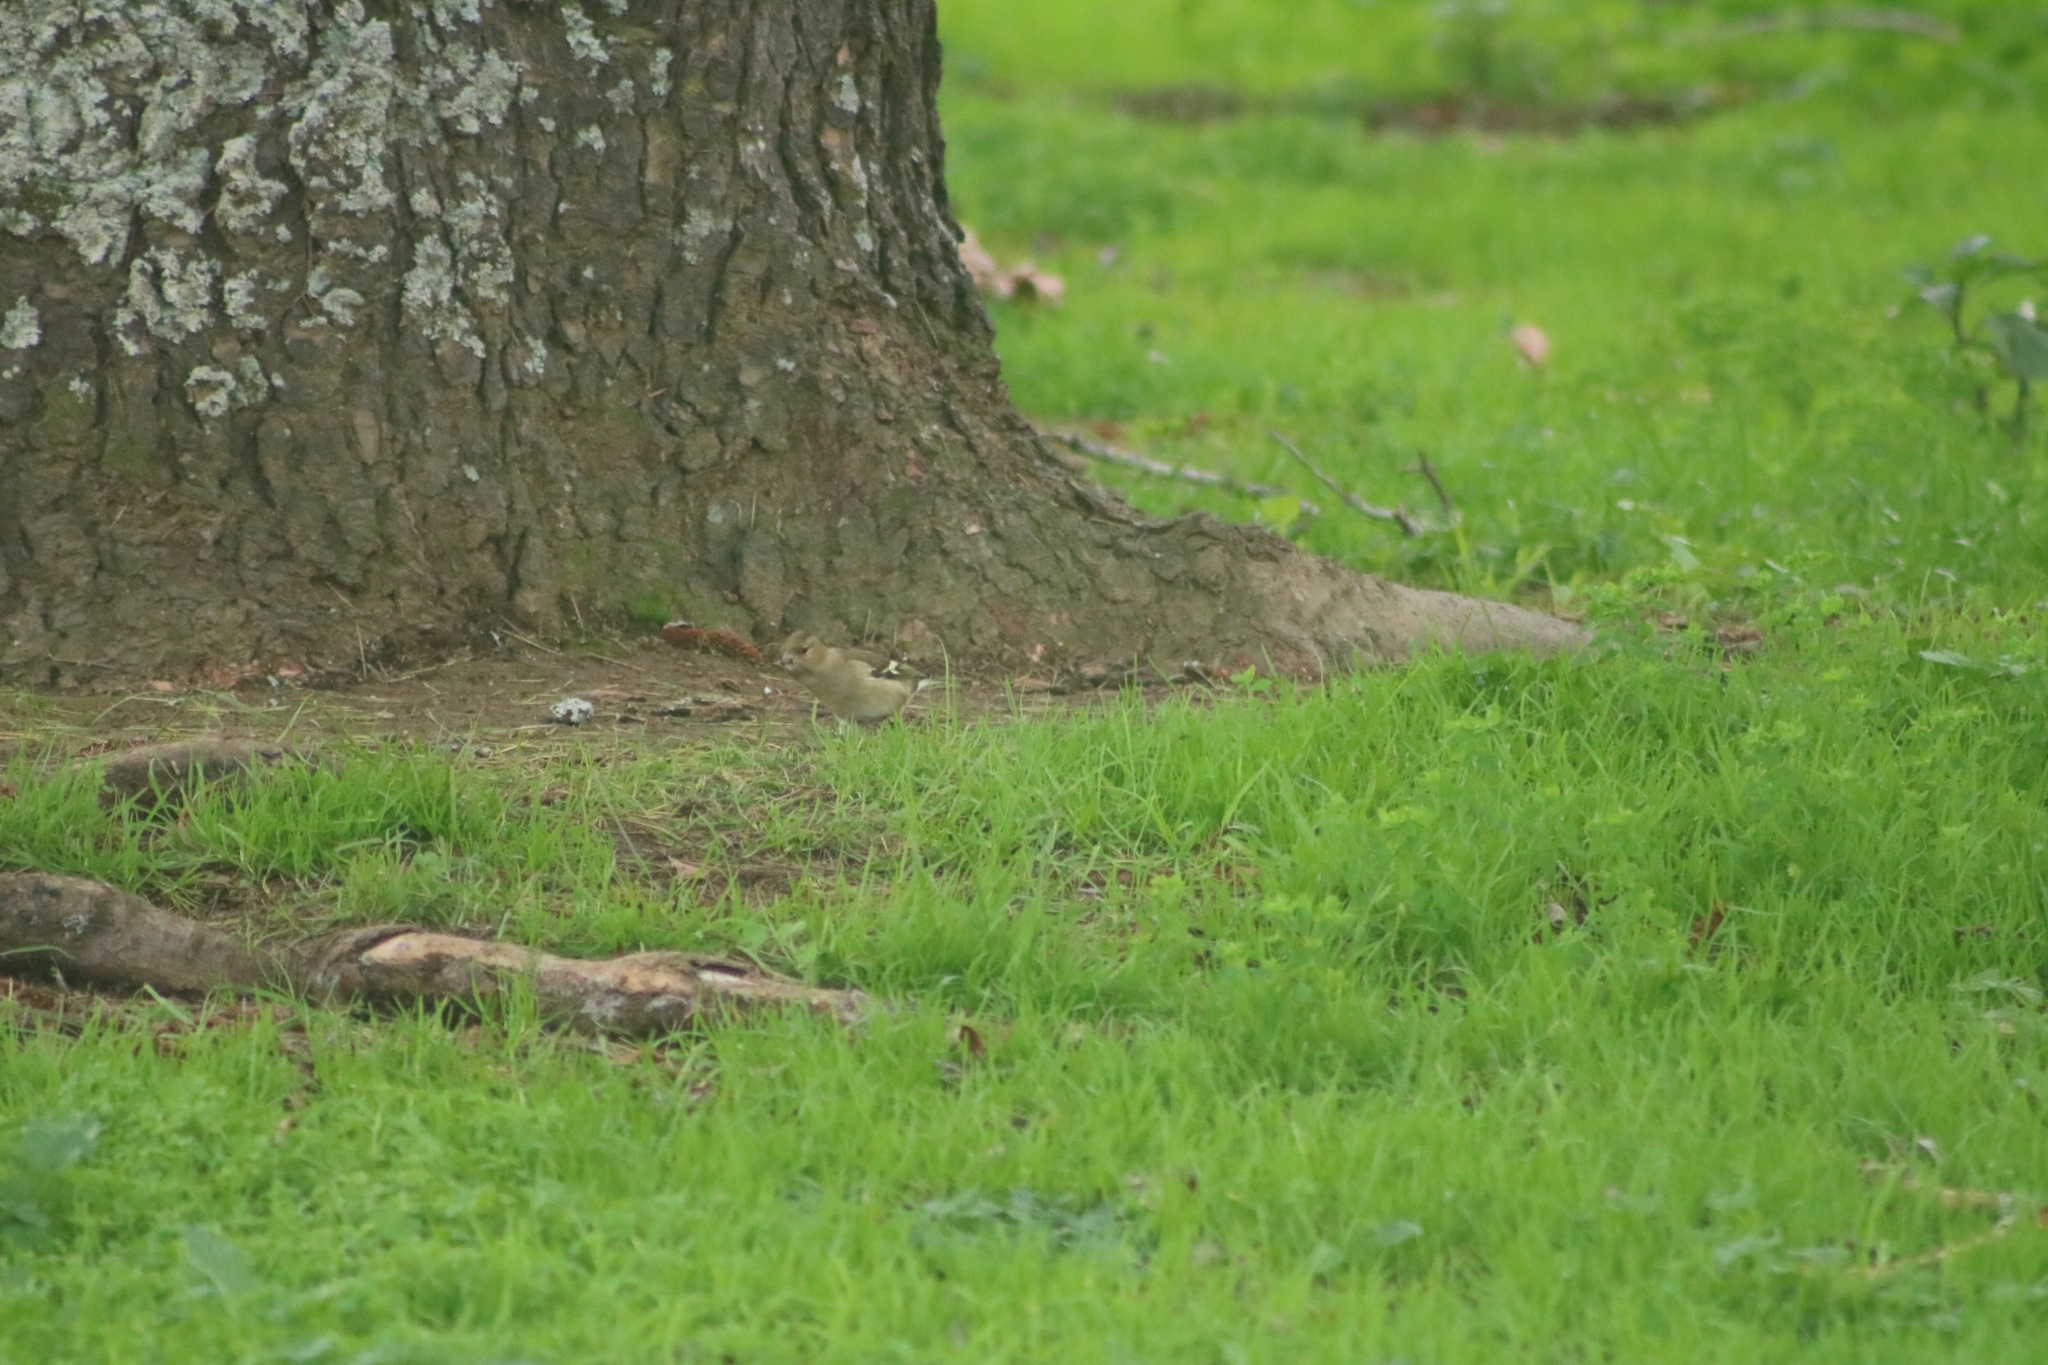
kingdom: Animalia
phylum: Chordata
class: Aves
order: Passeriformes
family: Fringillidae
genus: Fringilla
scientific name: Fringilla coelebs
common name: Common chaffinch
